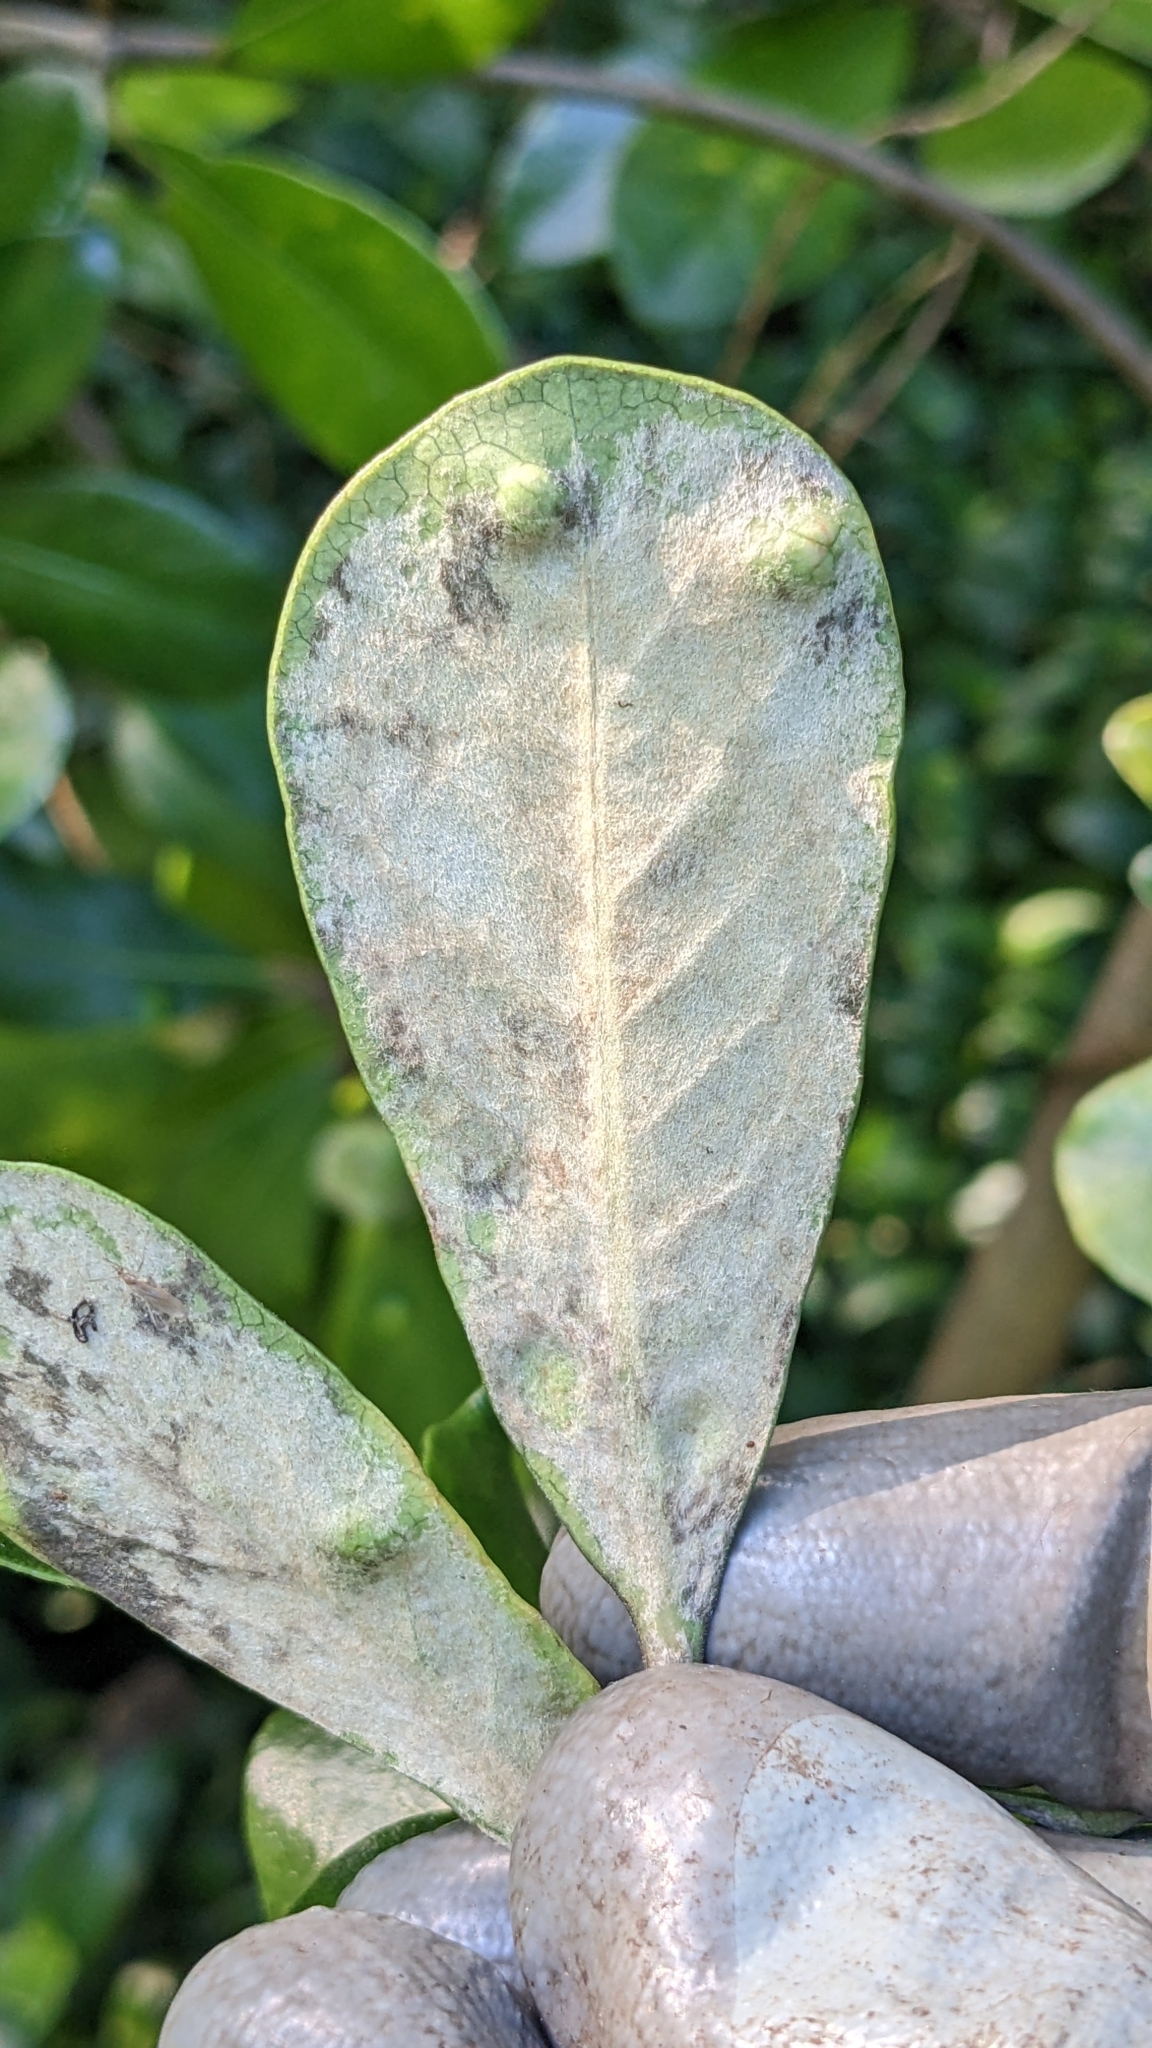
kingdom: Plantae
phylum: Tracheophyta
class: Magnoliopsida
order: Apiales
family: Pittosporaceae
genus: Pittosporum
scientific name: Pittosporum crassifolium
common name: Karo
